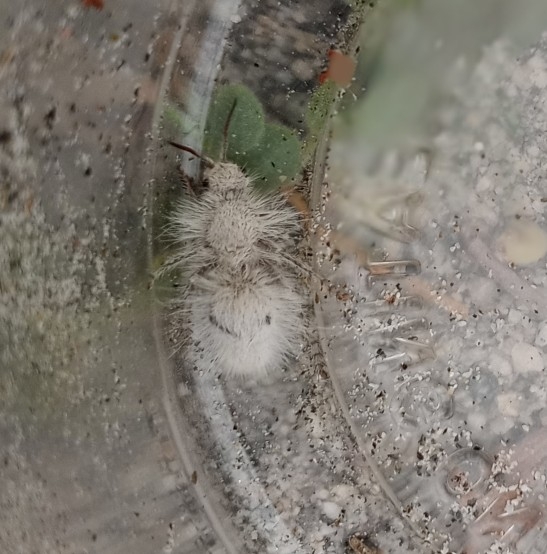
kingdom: Animalia
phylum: Arthropoda
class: Insecta
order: Hymenoptera
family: Mutillidae
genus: Dasymutilla
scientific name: Dasymutilla gloriosa
